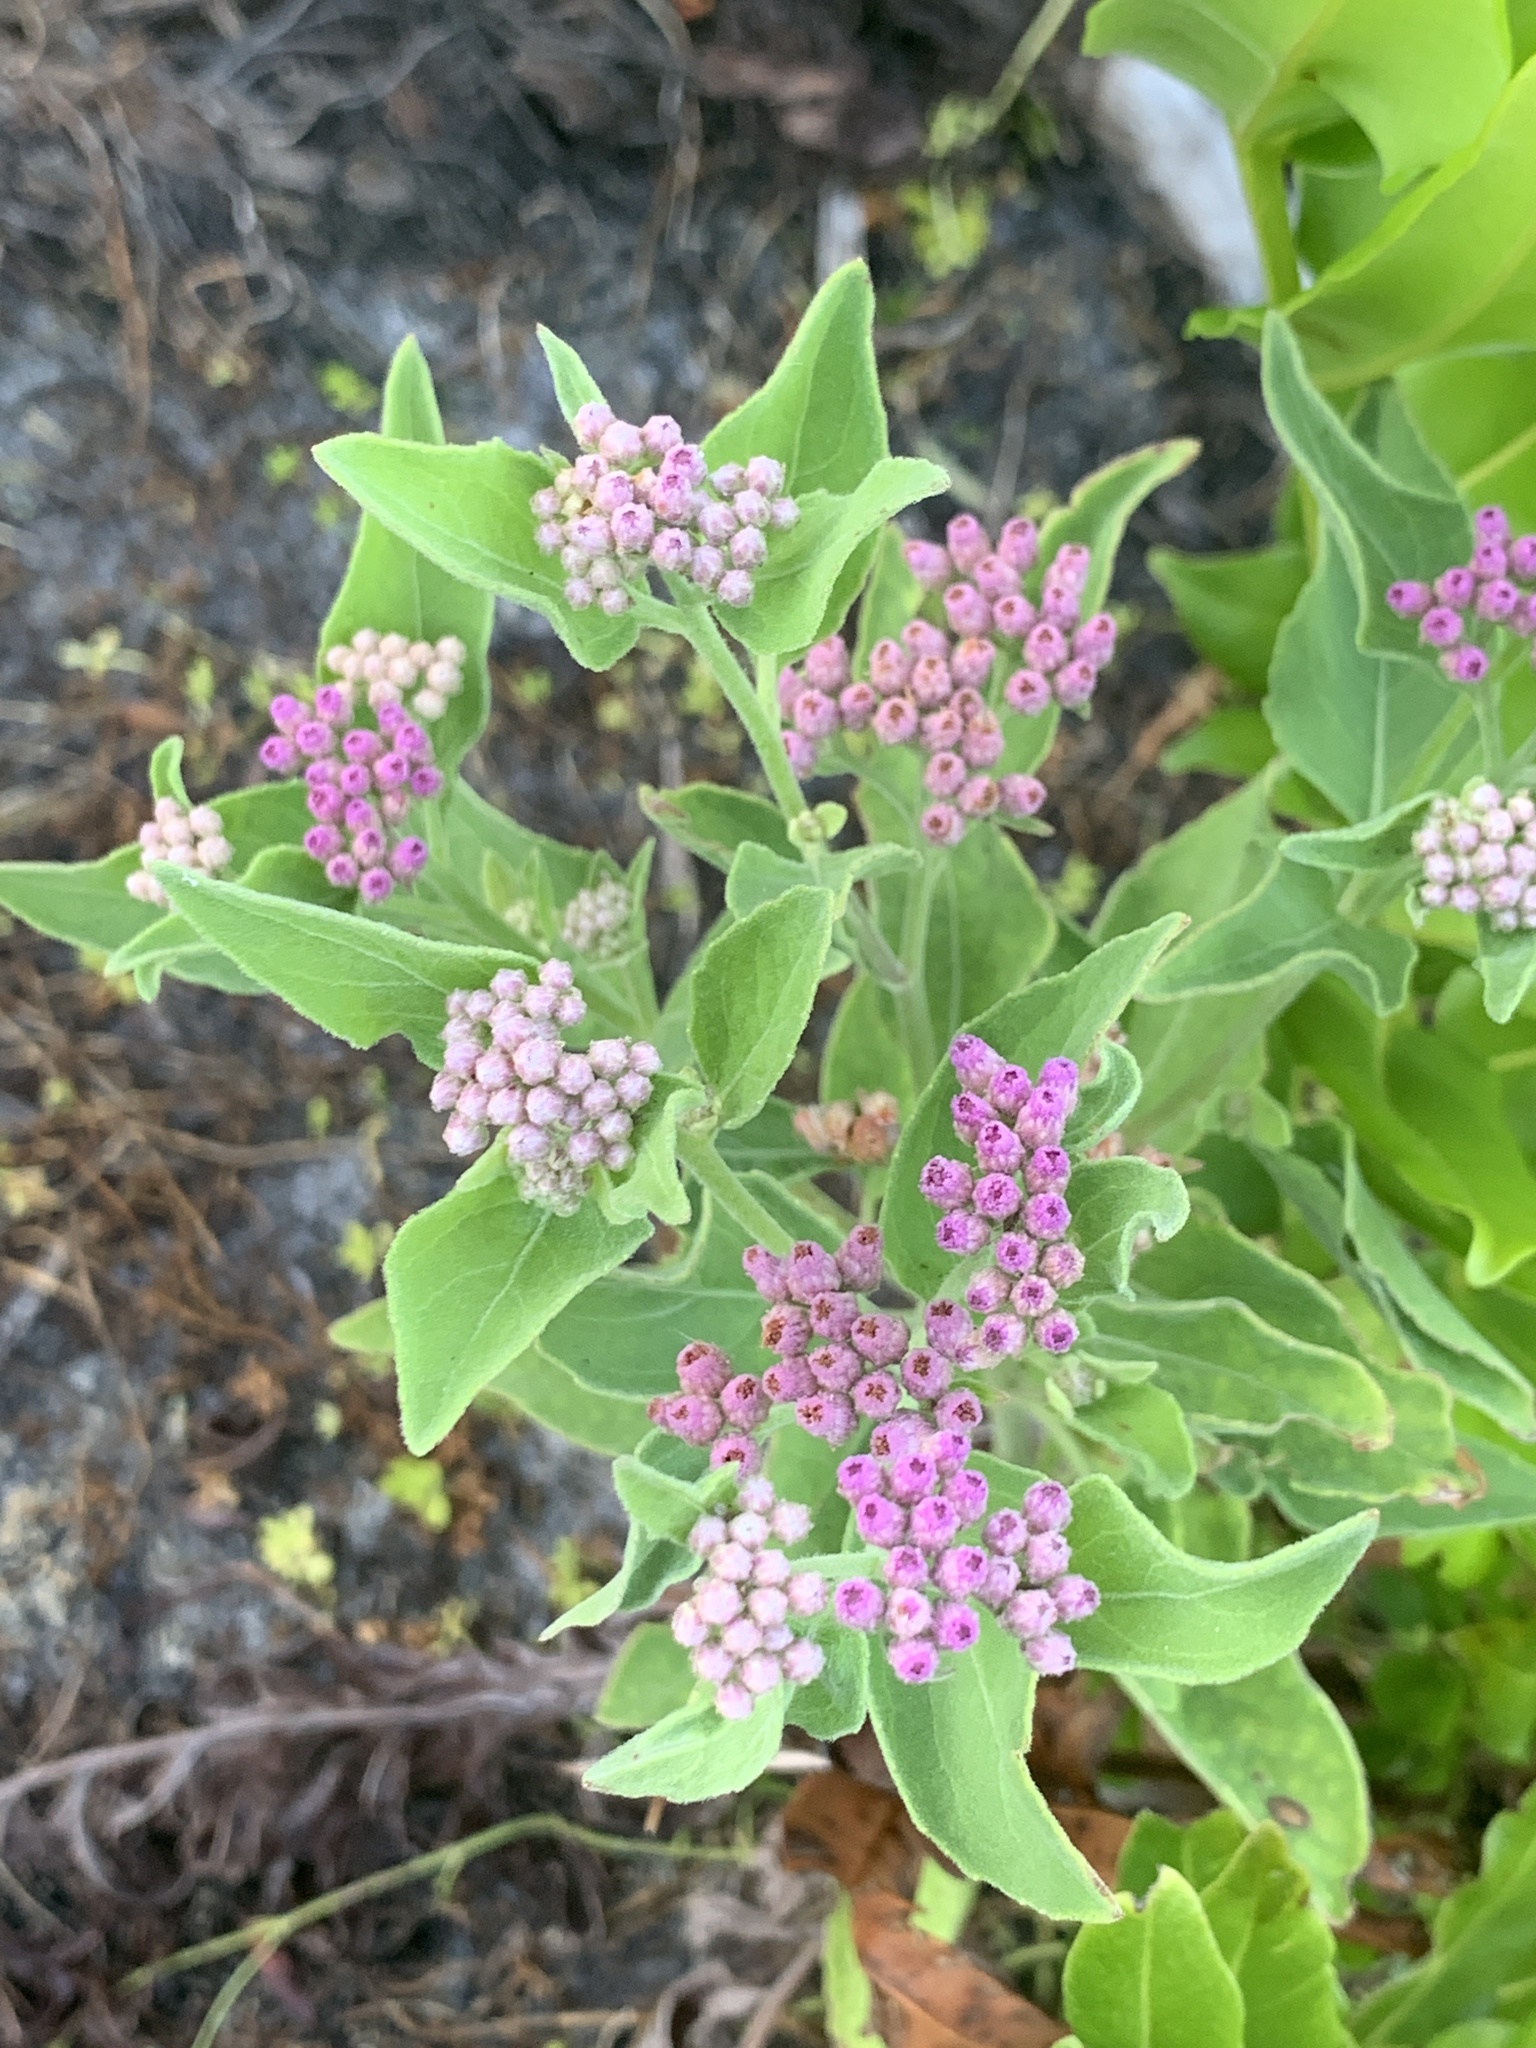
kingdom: Plantae
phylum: Tracheophyta
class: Magnoliopsida
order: Asterales
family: Asteraceae
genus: Pluchea
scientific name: Pluchea odorata
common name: Saltmarsh fleabane
